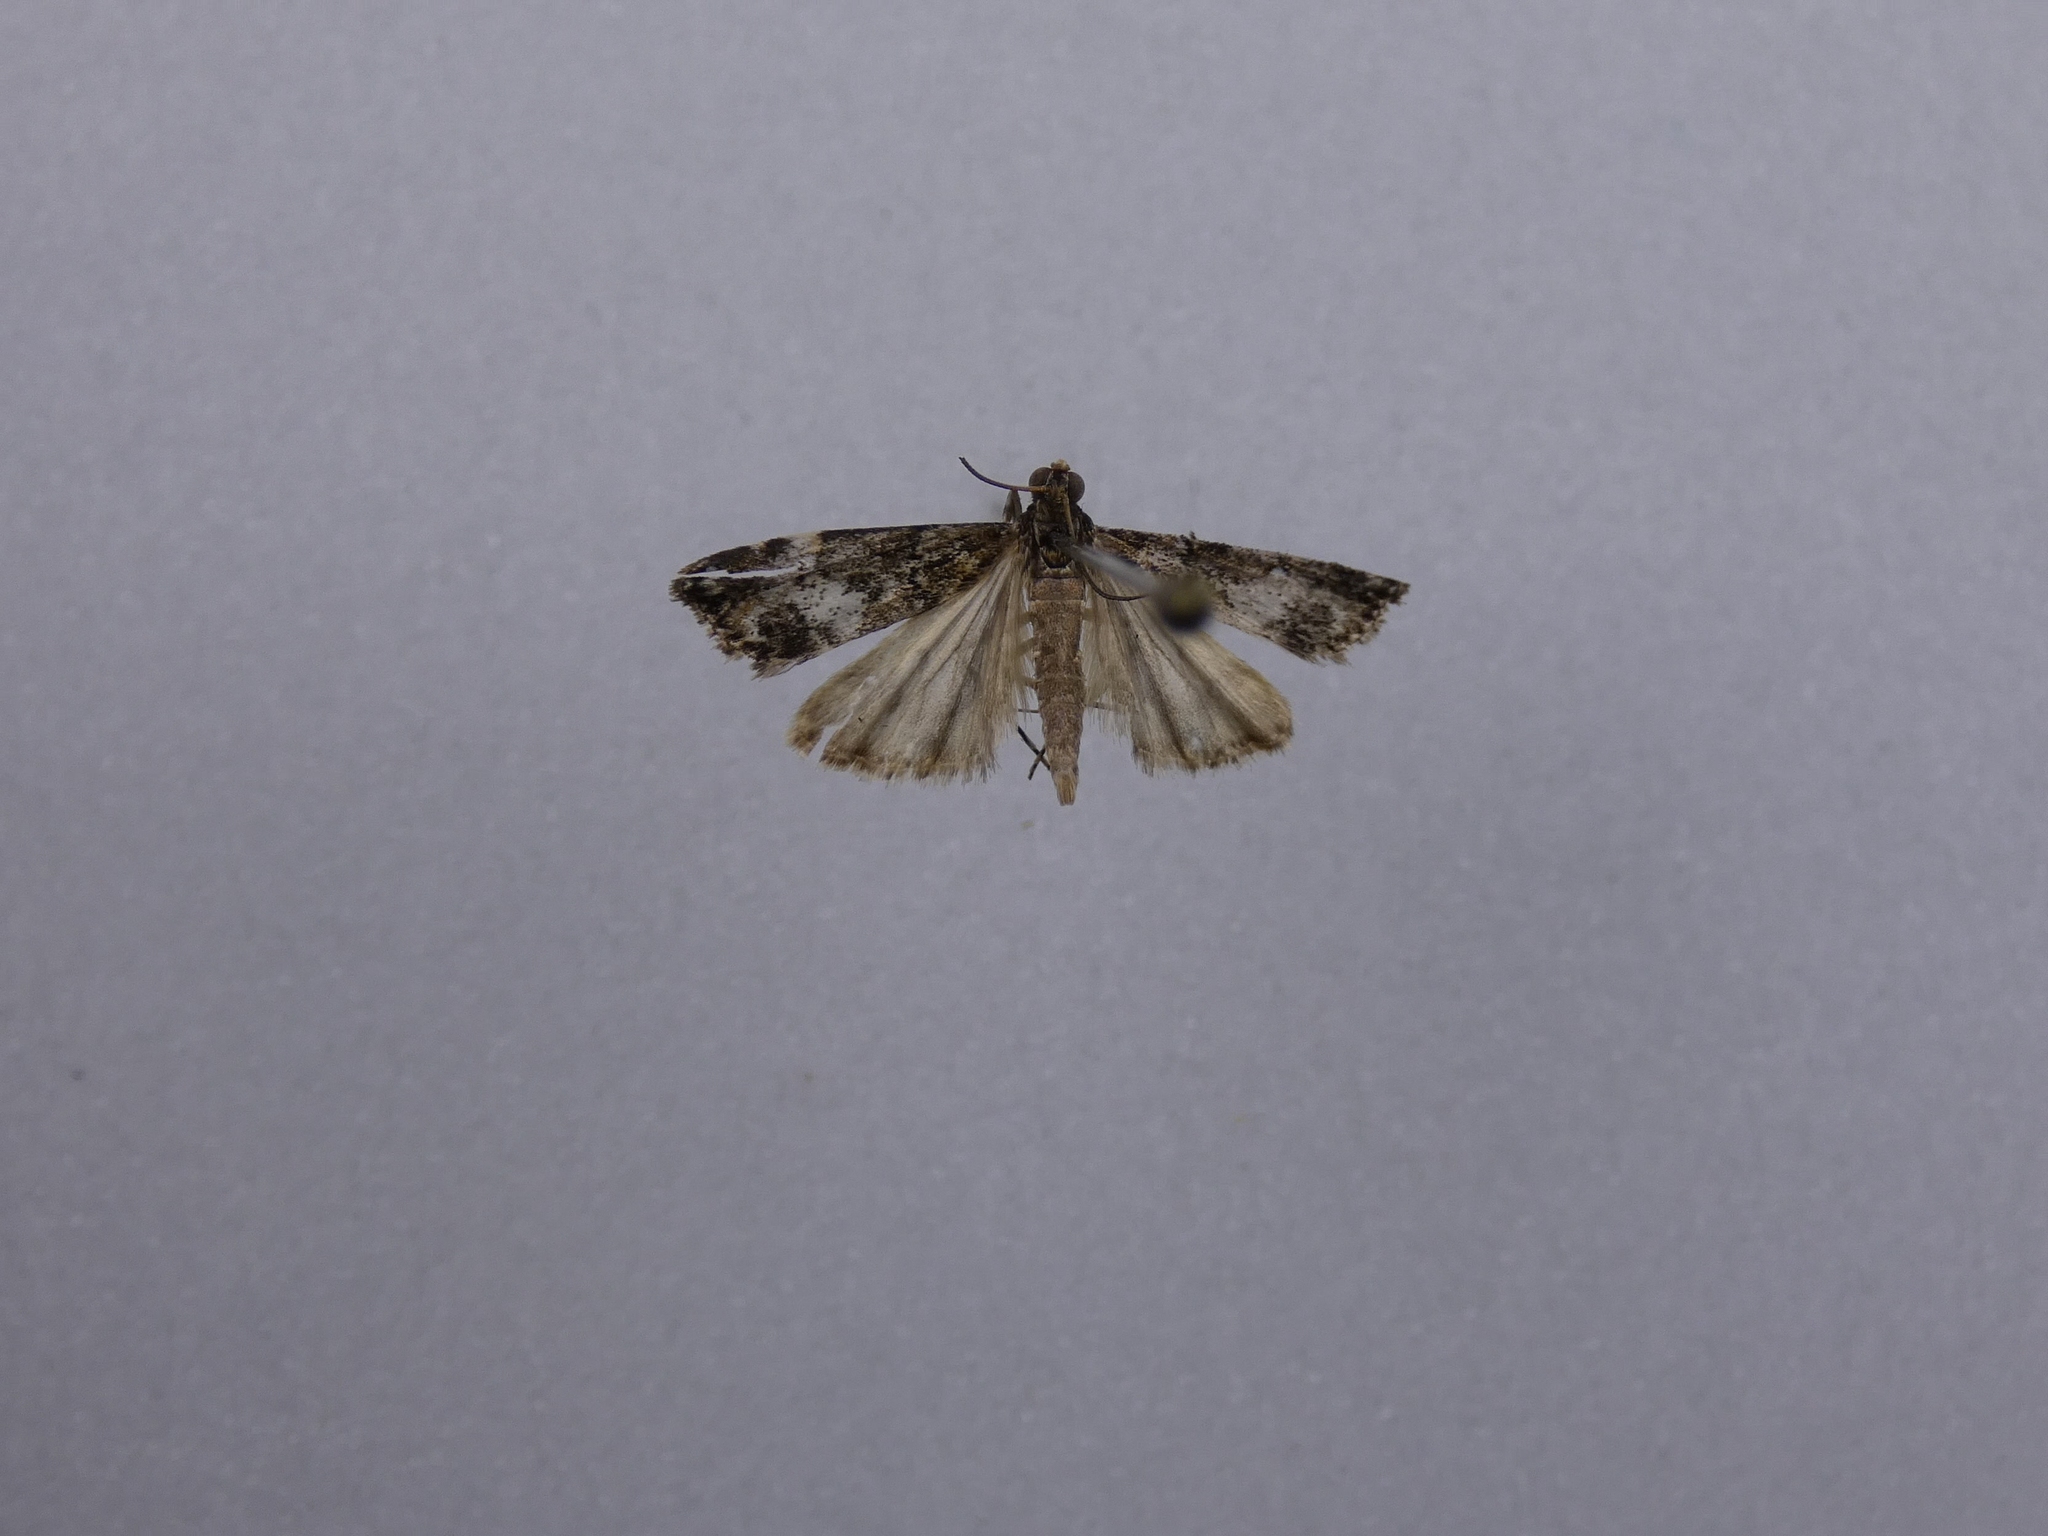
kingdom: Animalia
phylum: Arthropoda
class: Insecta
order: Lepidoptera
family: Crambidae
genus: Eudonia
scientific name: Eudonia dinodes
